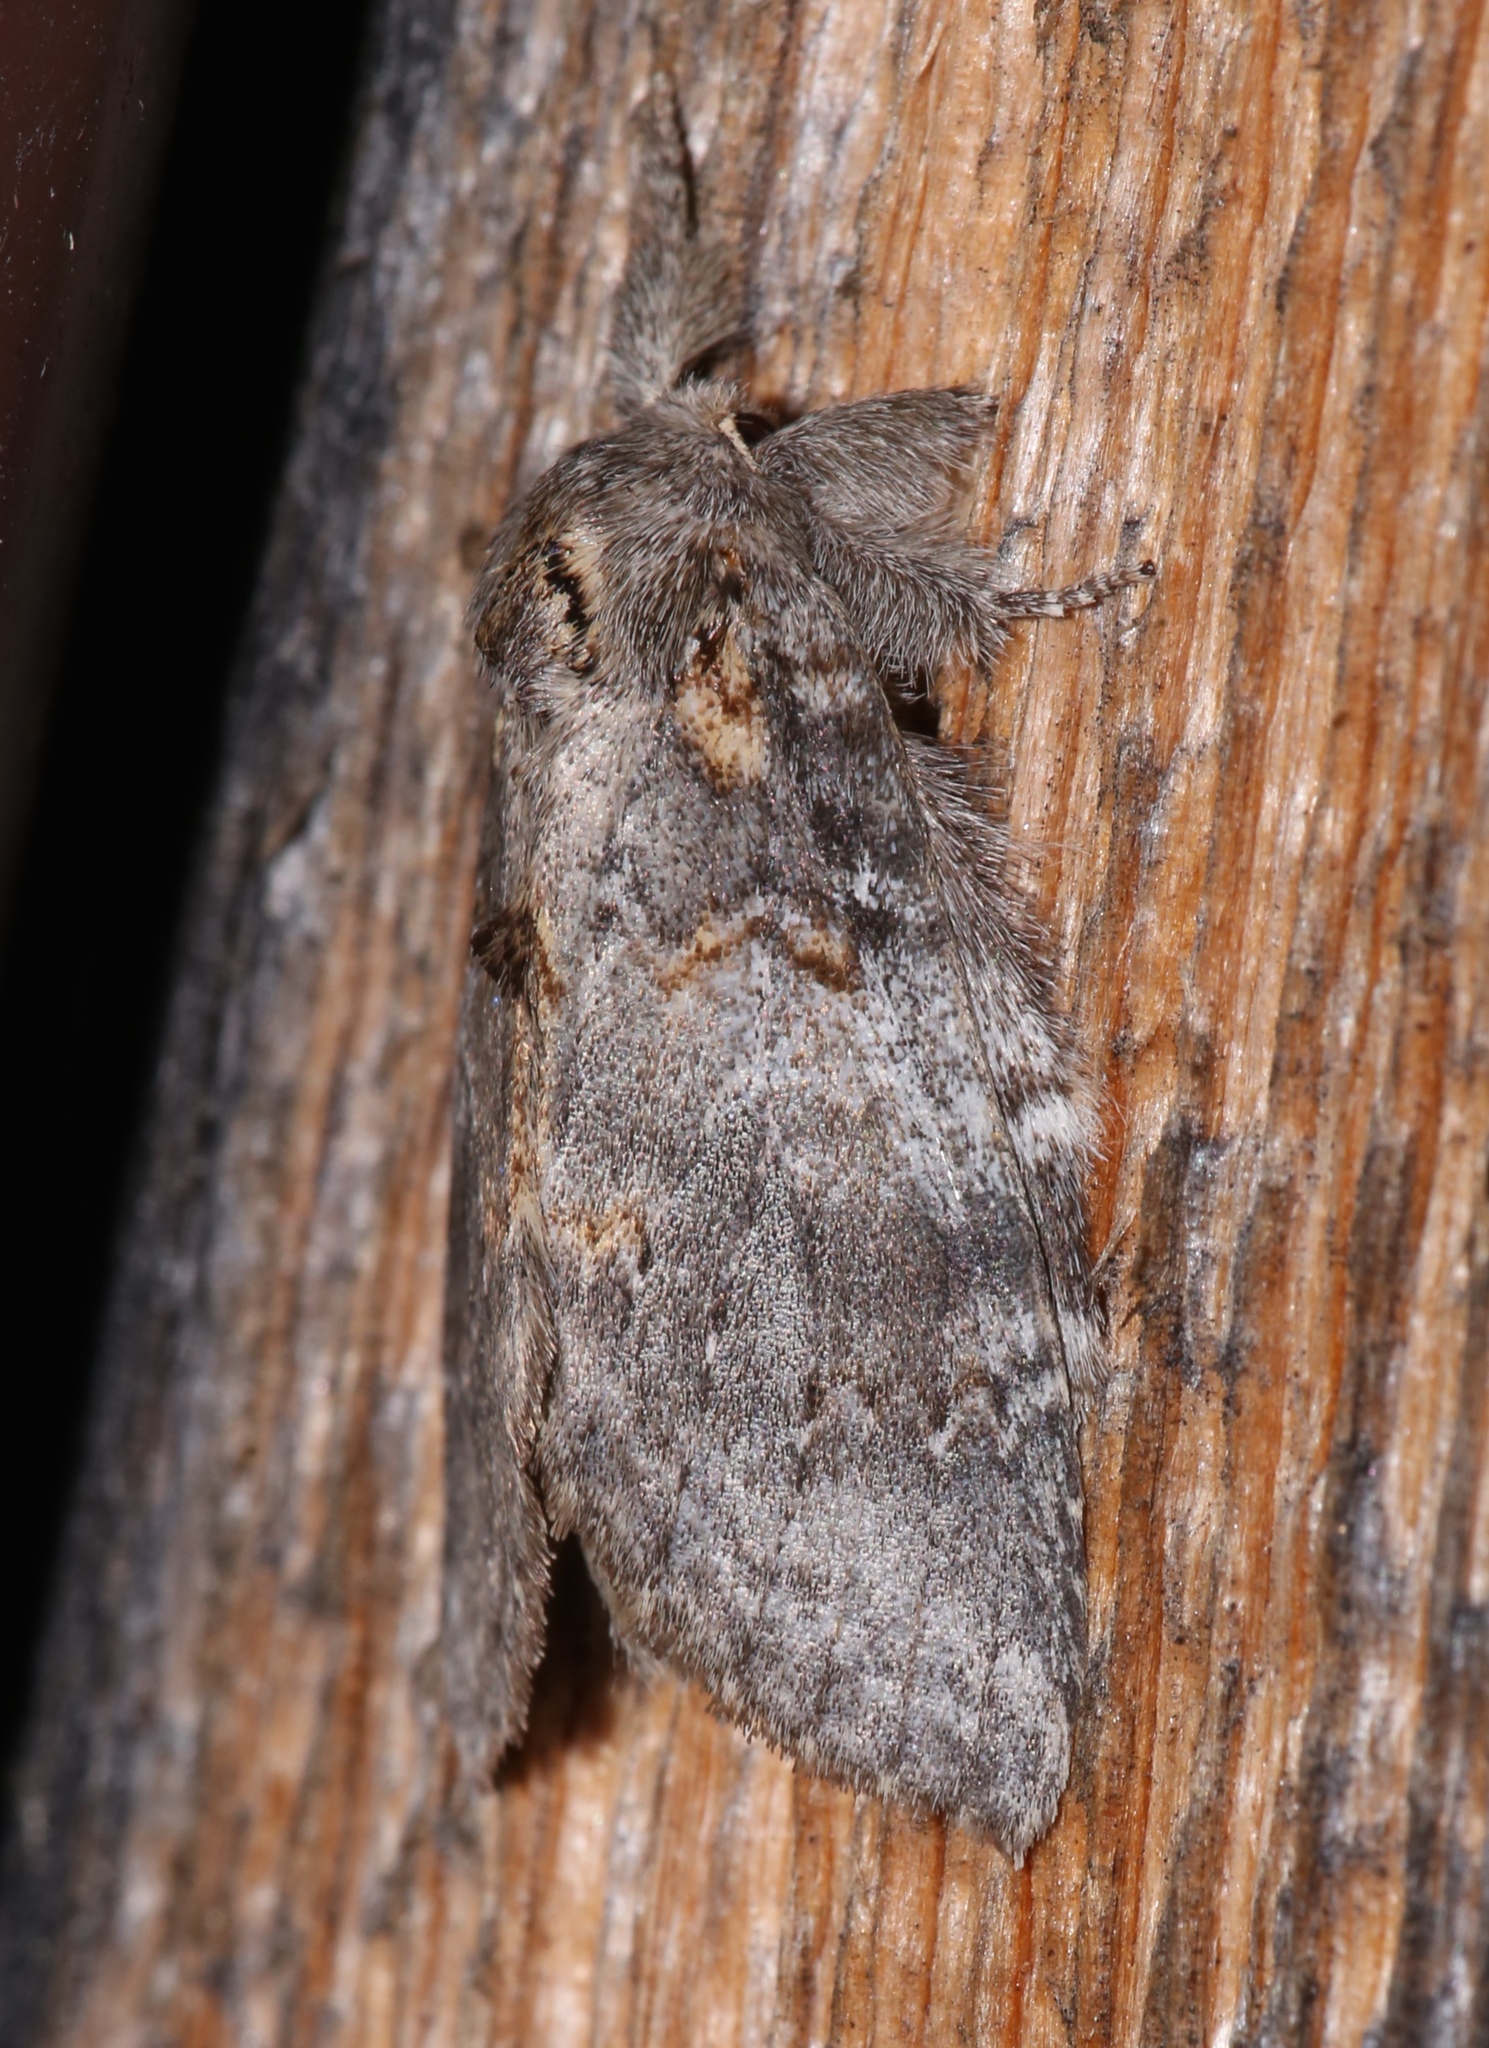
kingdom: Animalia
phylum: Arthropoda
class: Insecta
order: Lepidoptera
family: Notodontidae
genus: Peridea
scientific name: Peridea angulosa
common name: Angulose prominent
